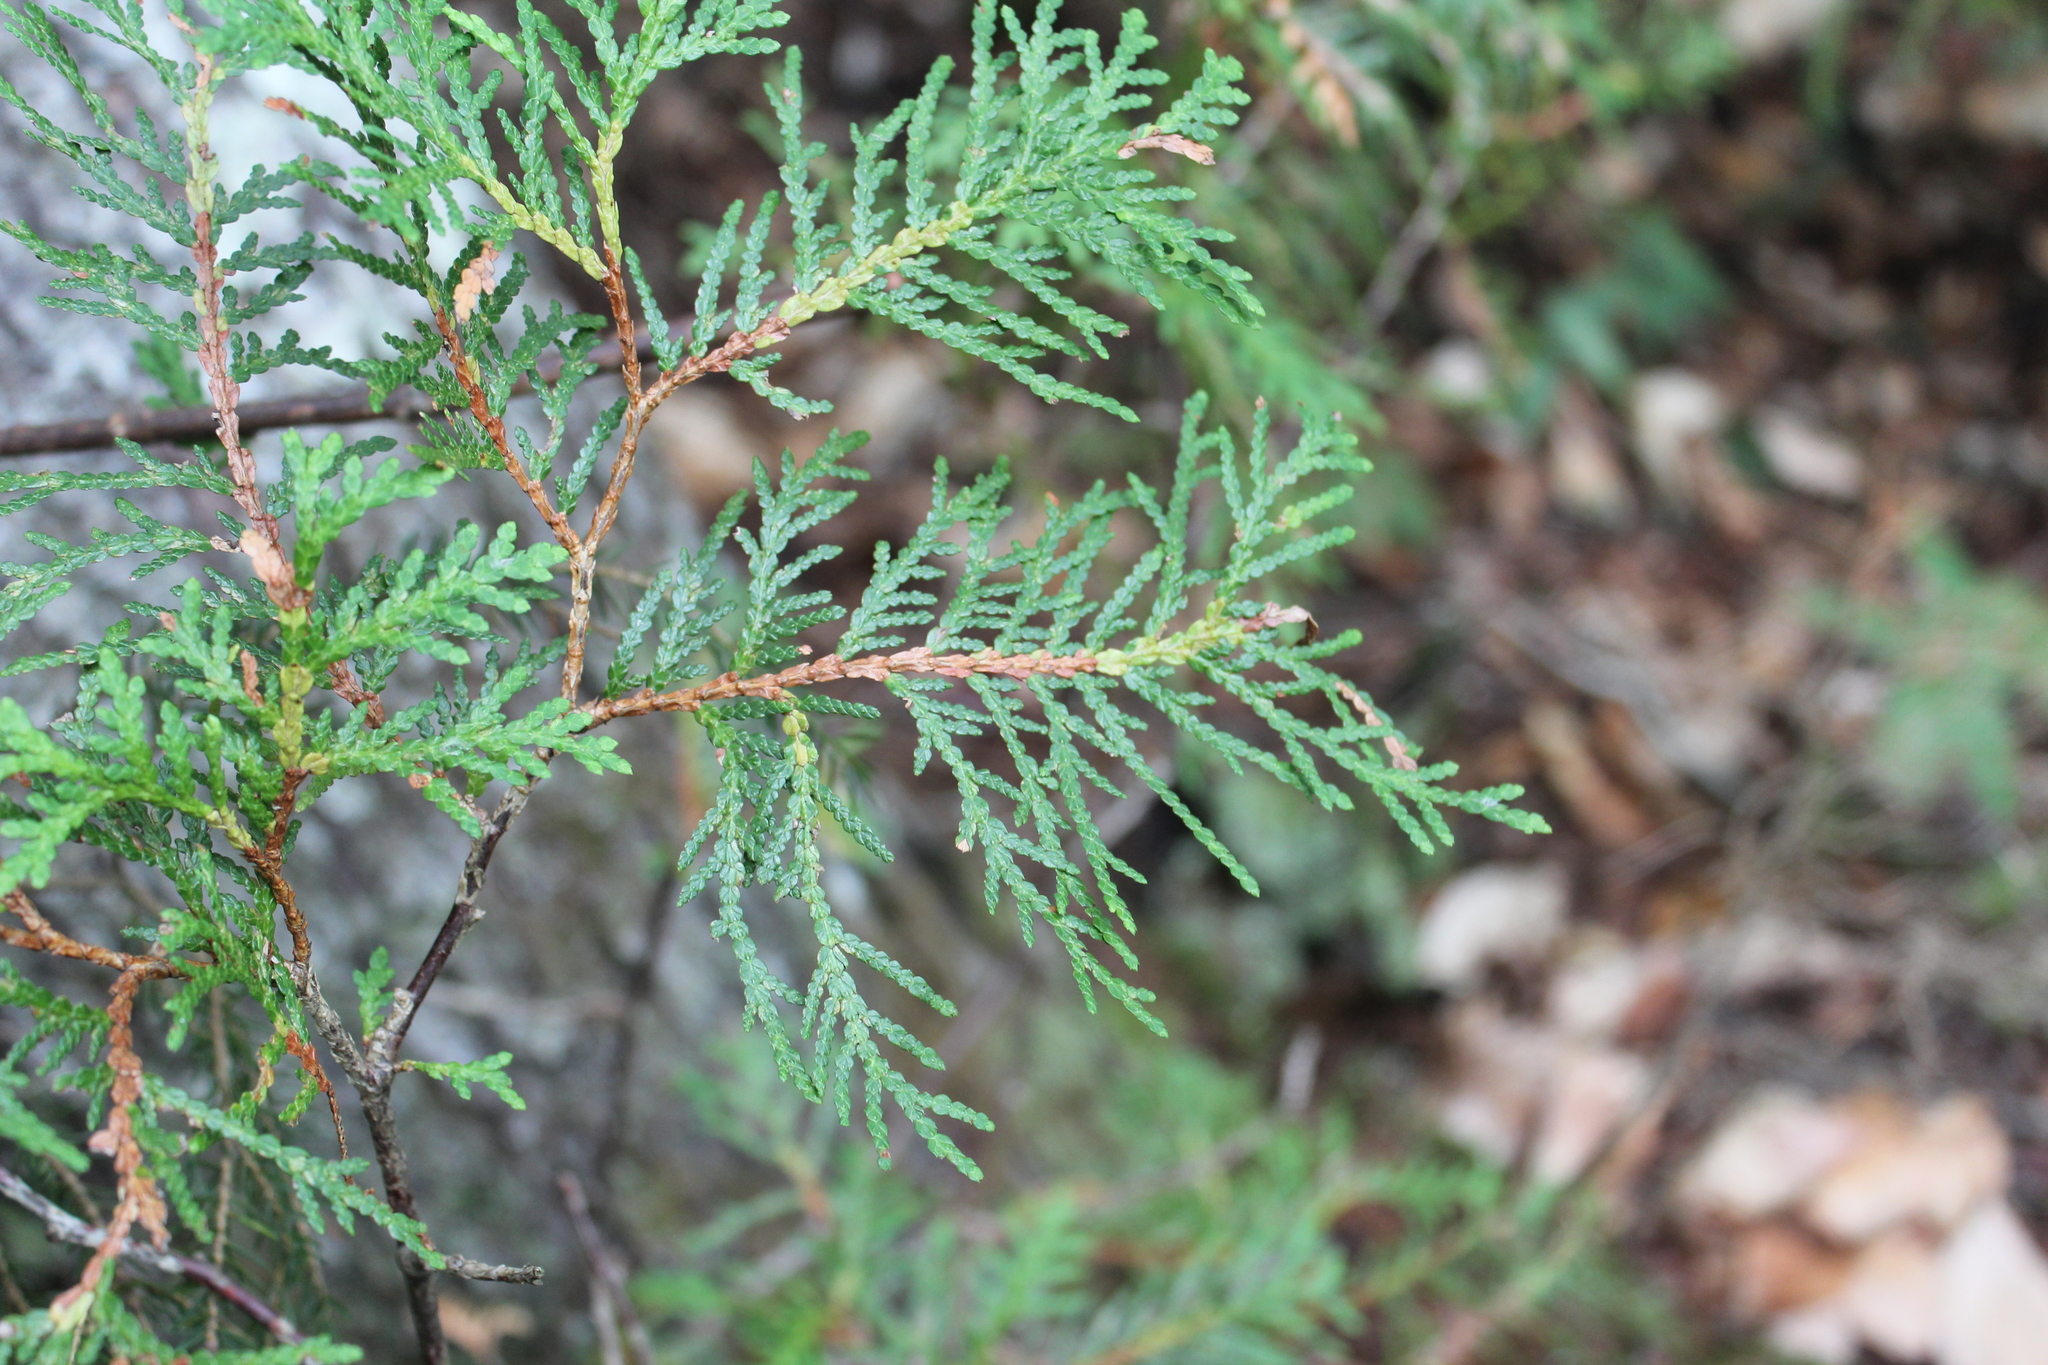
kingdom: Plantae
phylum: Tracheophyta
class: Pinopsida
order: Pinales
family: Cupressaceae
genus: Thuja
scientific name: Thuja occidentalis
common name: Northern white-cedar
